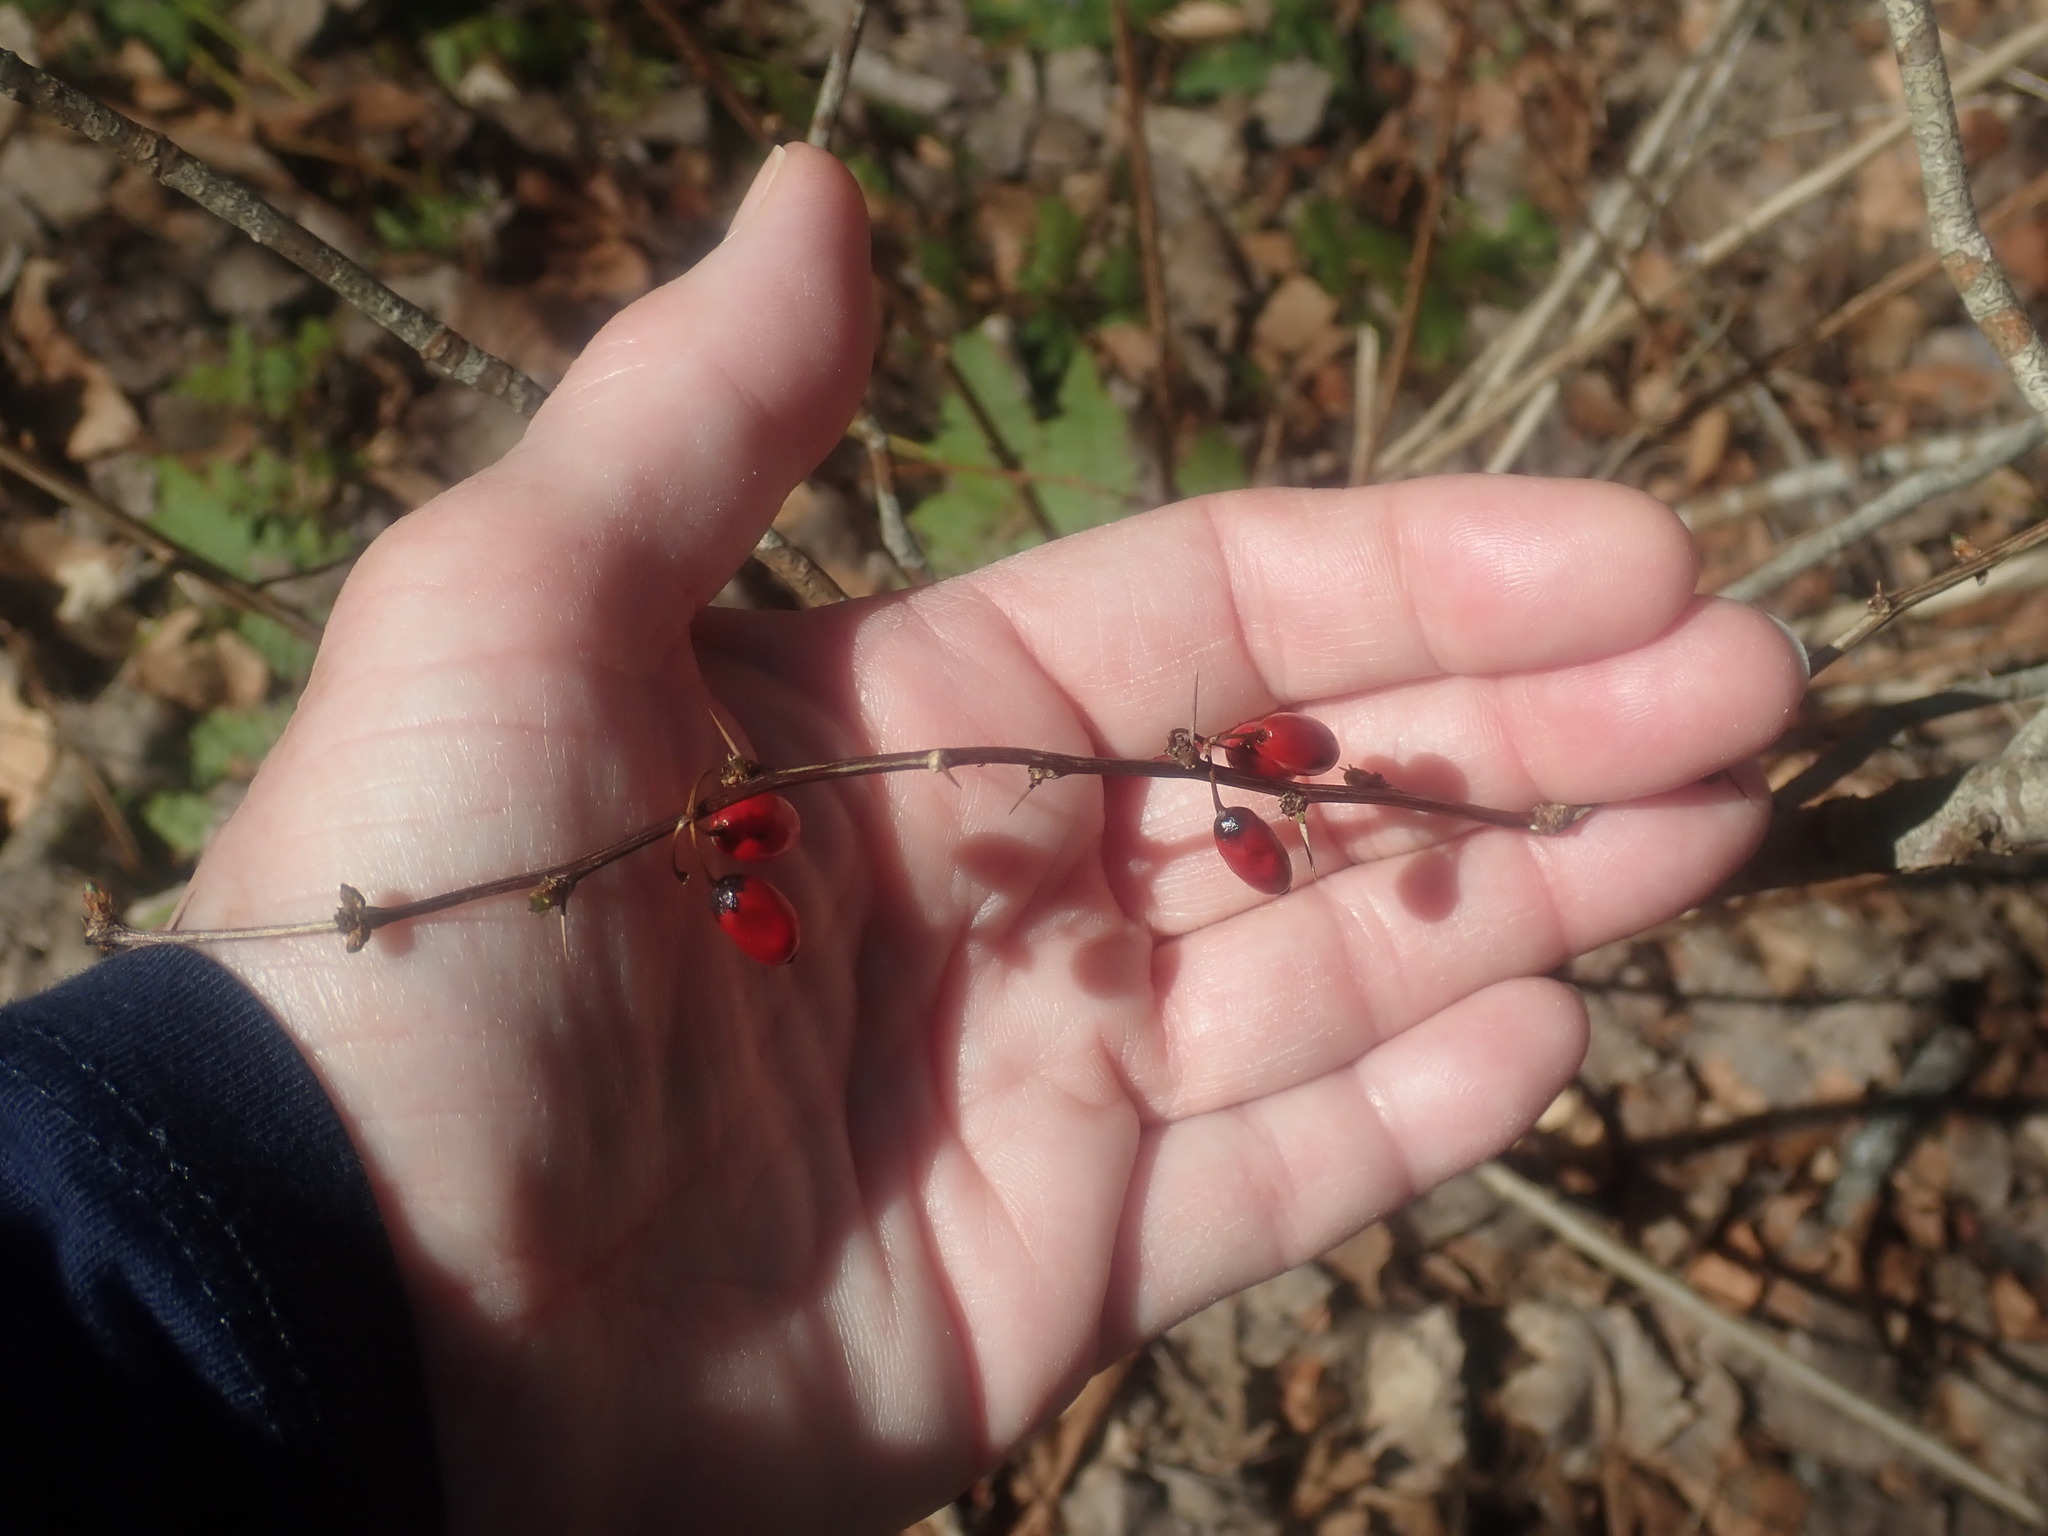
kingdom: Plantae
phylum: Tracheophyta
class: Magnoliopsida
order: Ranunculales
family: Berberidaceae
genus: Berberis
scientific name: Berberis thunbergii
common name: Japanese barberry
